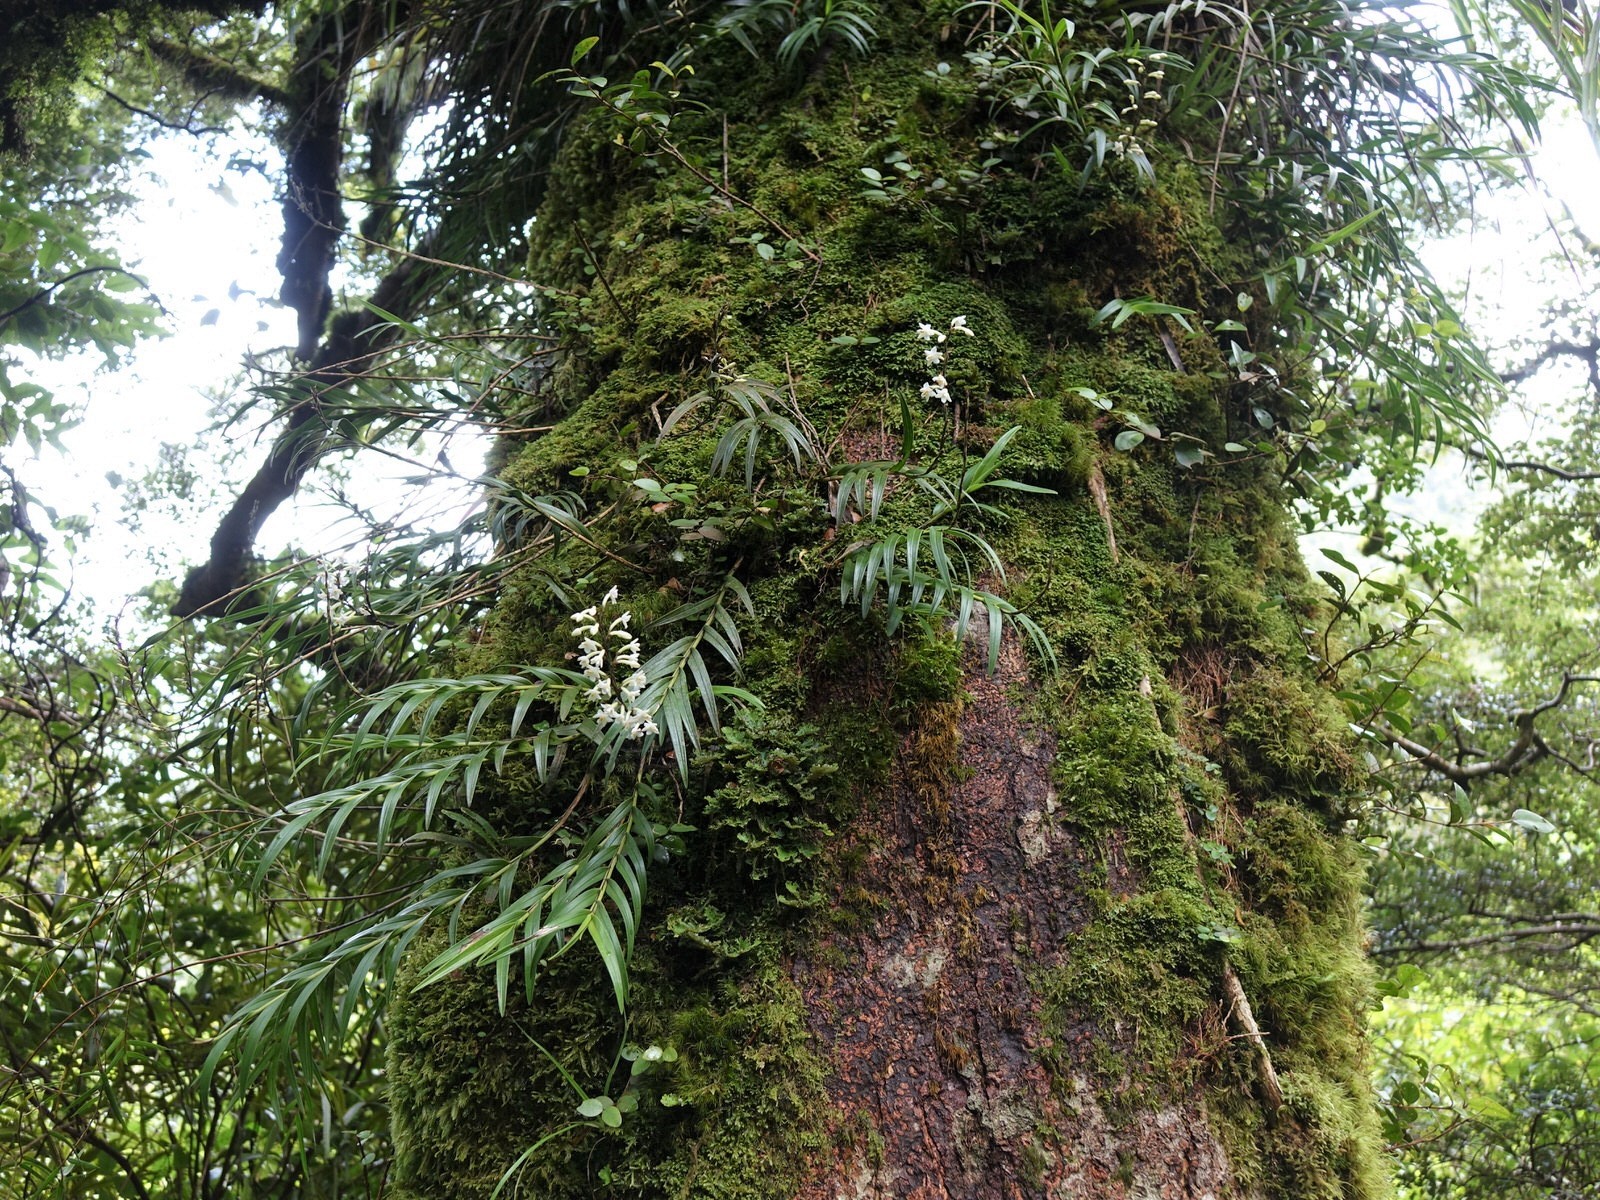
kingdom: Plantae
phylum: Tracheophyta
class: Liliopsida
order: Asparagales
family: Orchidaceae
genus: Earina
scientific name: Earina autumnalis
